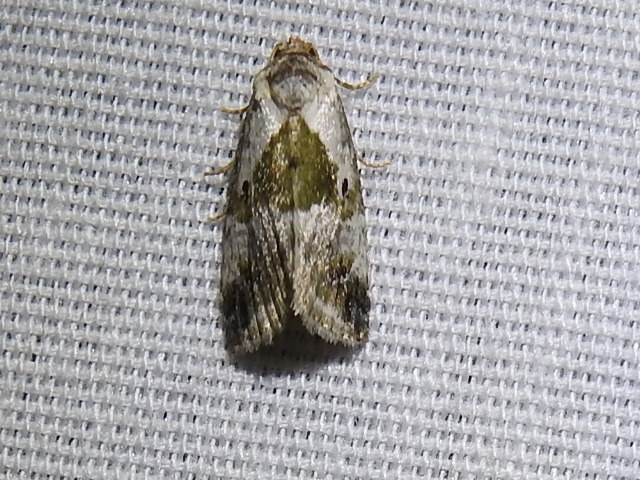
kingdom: Animalia
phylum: Arthropoda
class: Insecta
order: Lepidoptera
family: Noctuidae
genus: Maliattha
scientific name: Maliattha synochitis
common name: Black-dotted glyph
